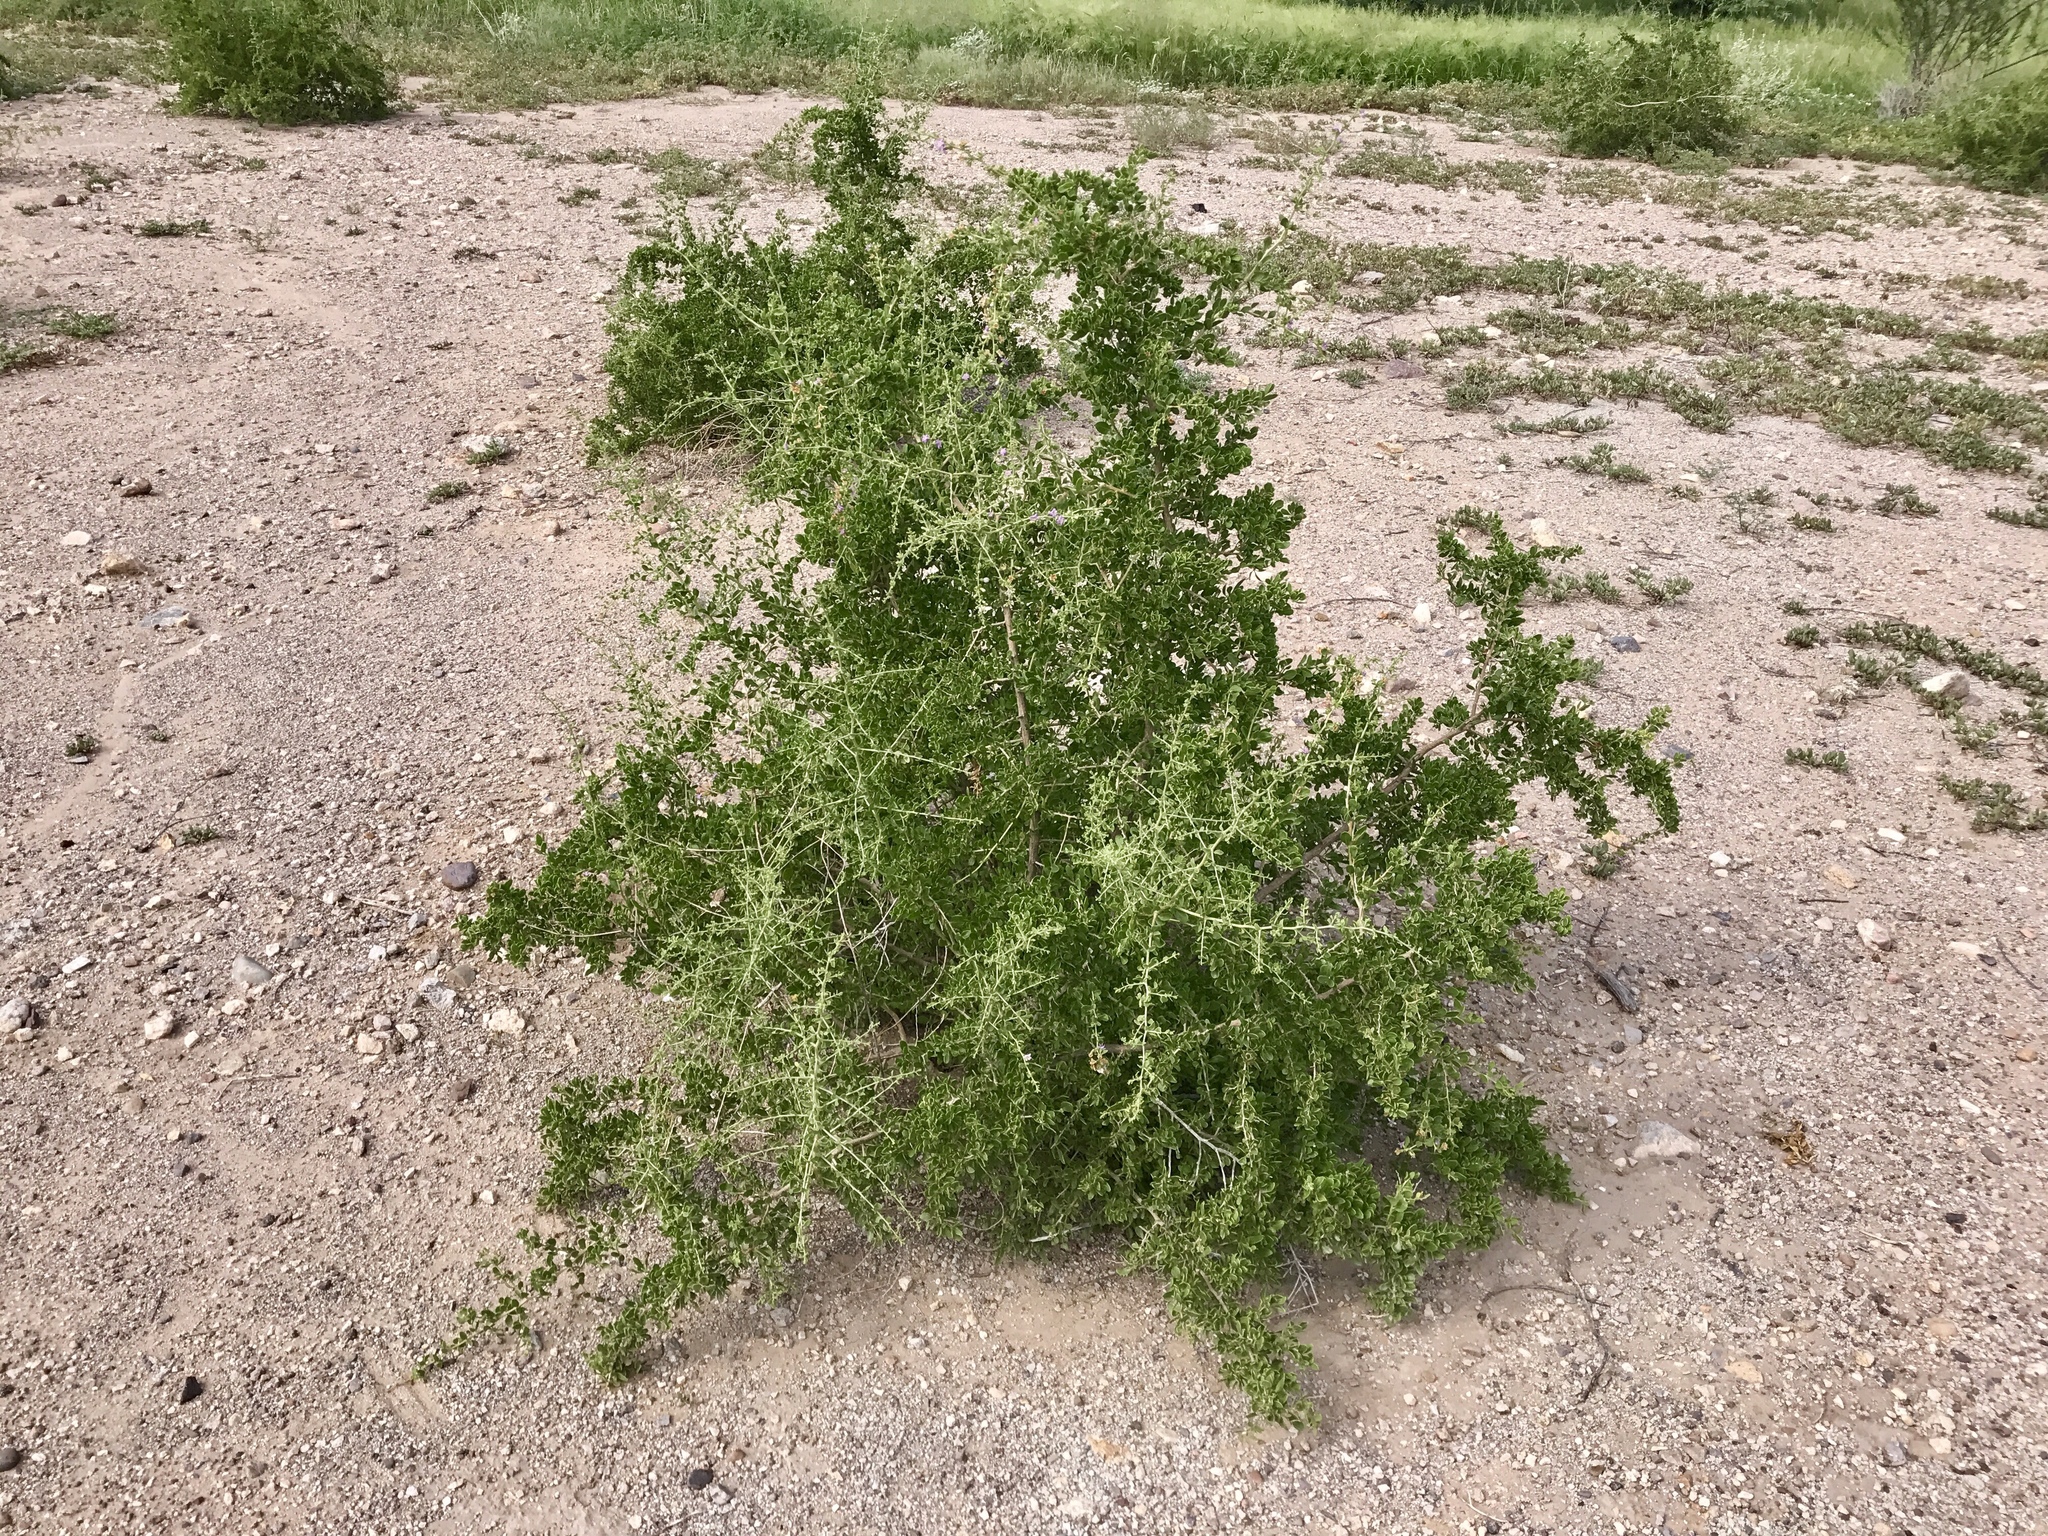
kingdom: Plantae
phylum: Tracheophyta
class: Magnoliopsida
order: Solanales
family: Solanaceae
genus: Lycium
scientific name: Lycium parishii
